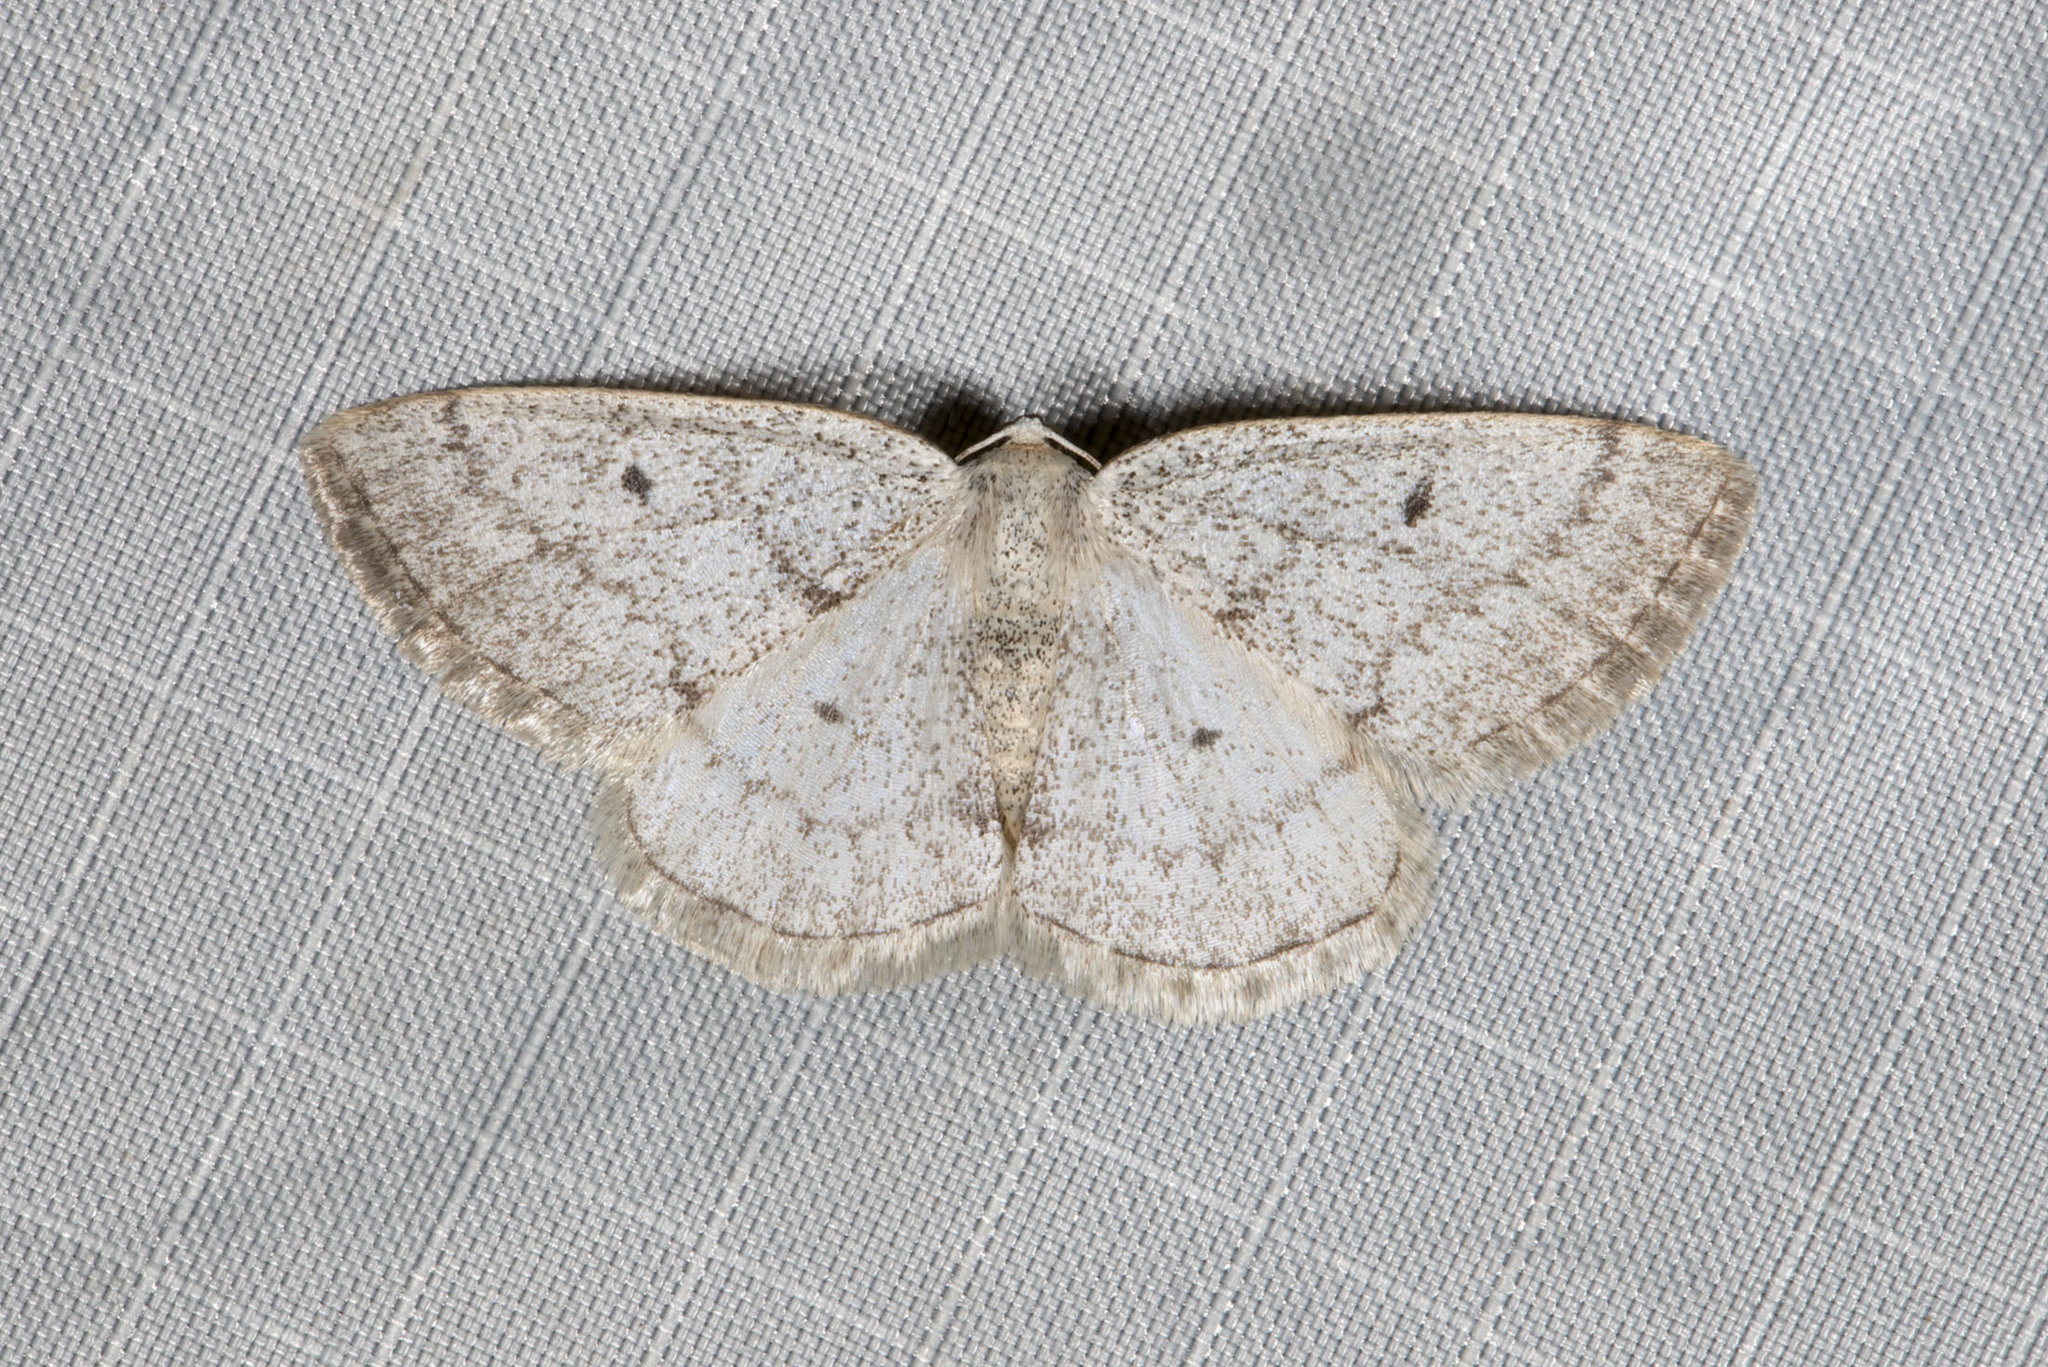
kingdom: Animalia
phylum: Arthropoda
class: Insecta
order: Lepidoptera
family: Geometridae
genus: Lomographa
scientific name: Lomographa glomeraria
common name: Gray spring moth
